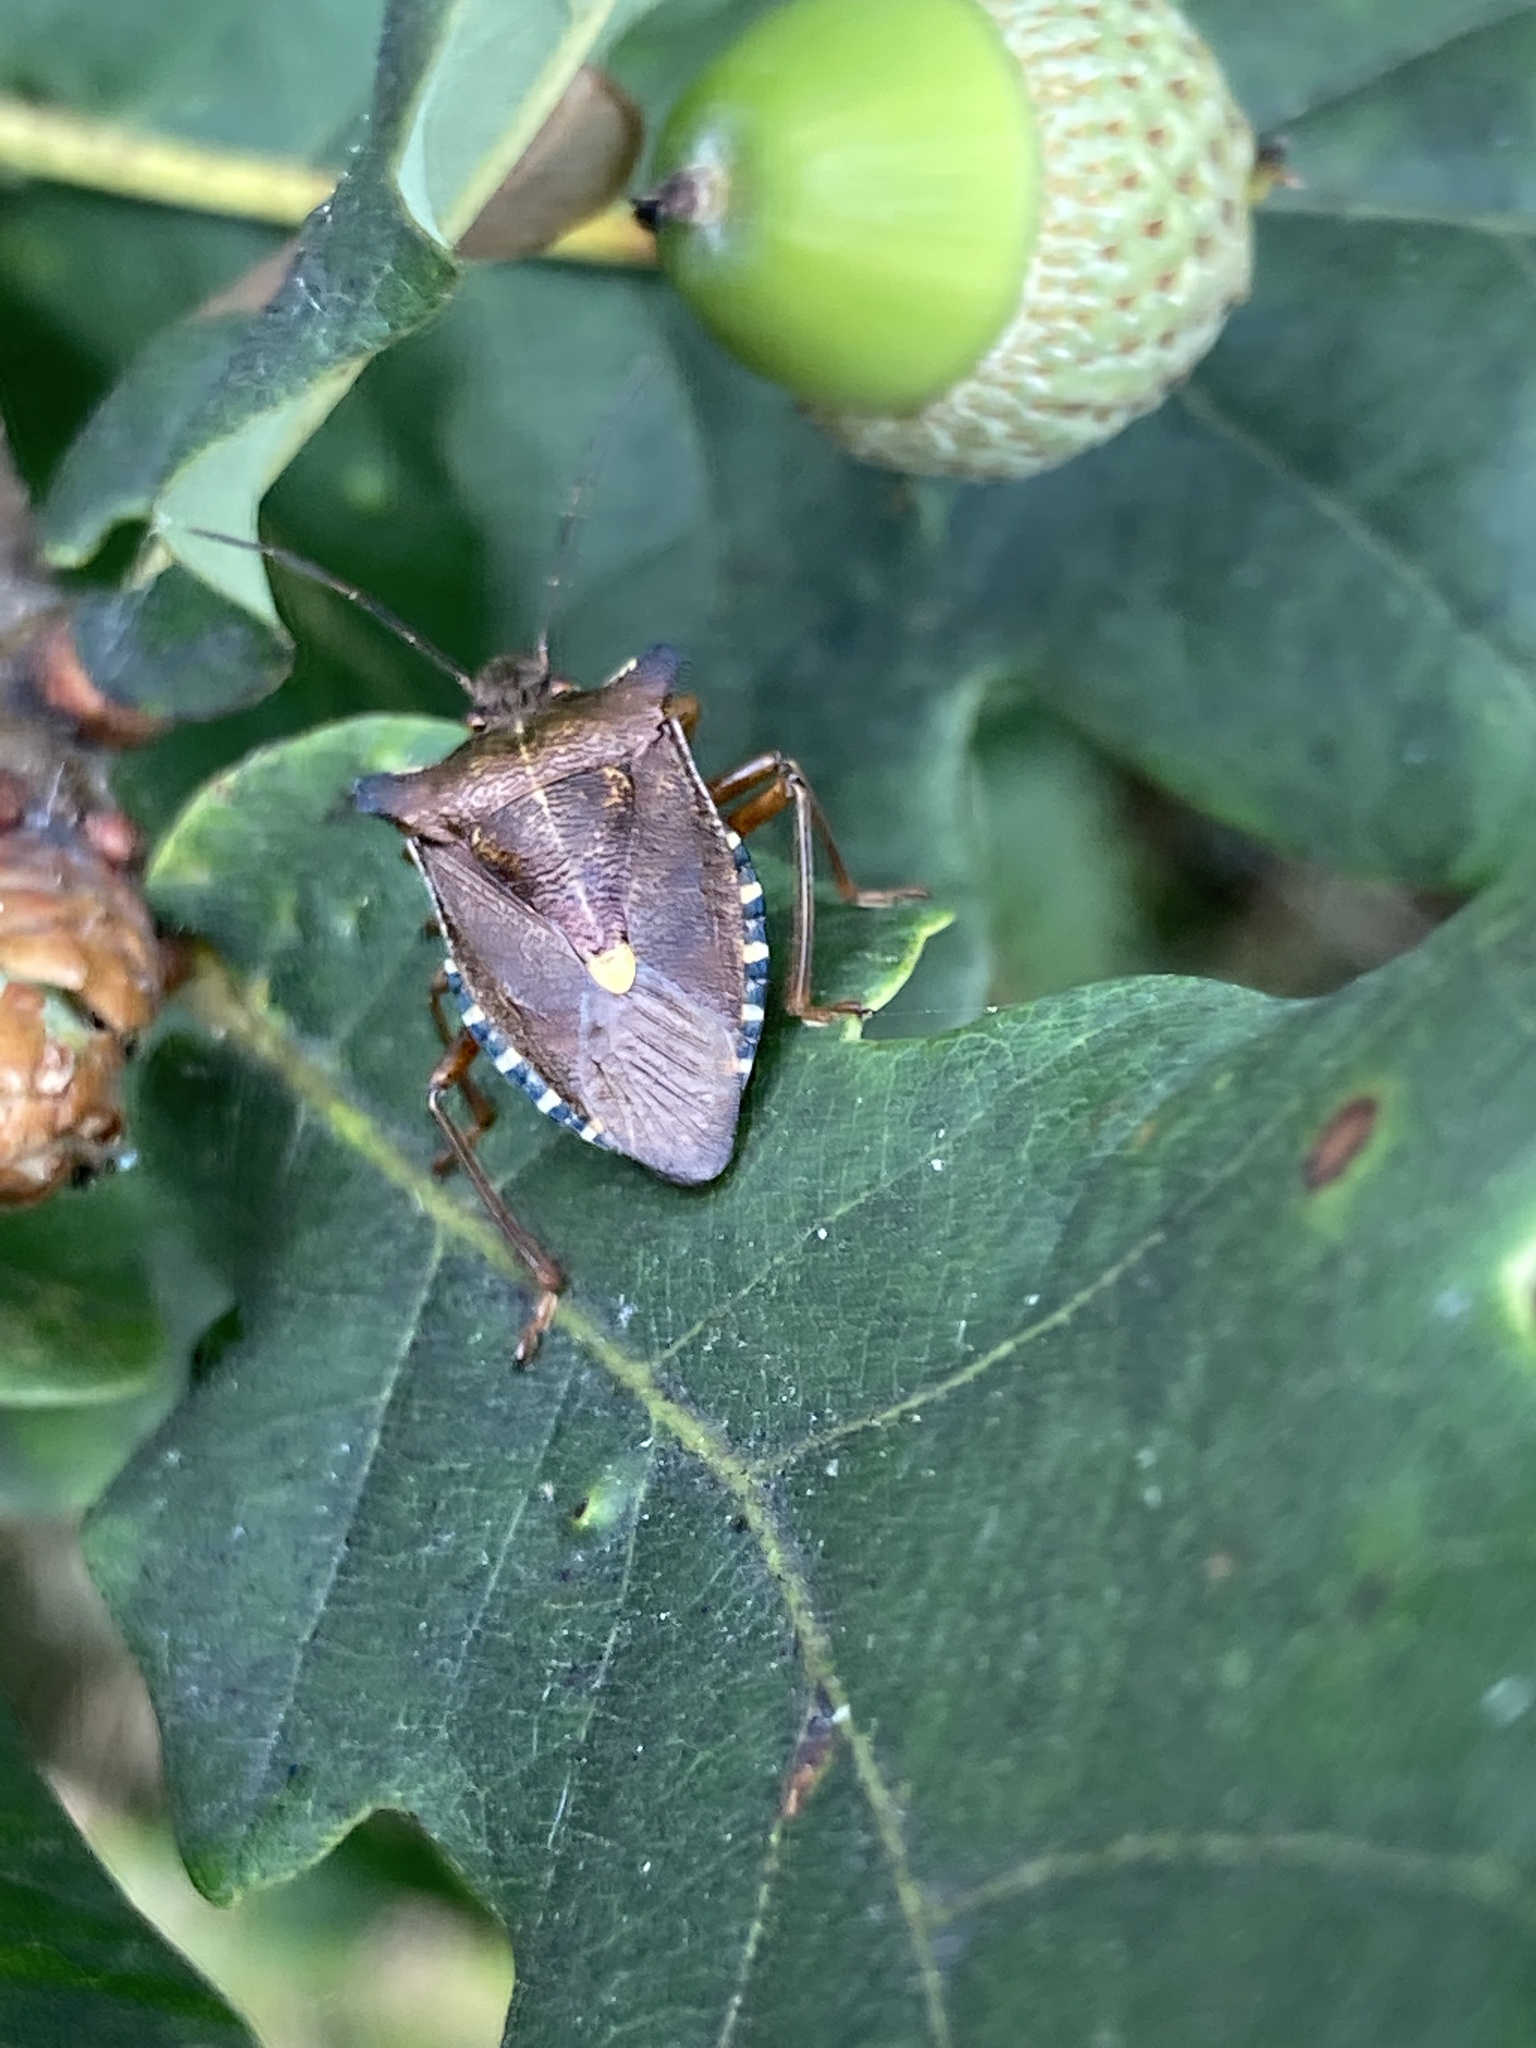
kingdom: Animalia
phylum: Arthropoda
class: Insecta
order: Hemiptera
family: Pentatomidae
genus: Pentatoma
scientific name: Pentatoma rufipes
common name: Forest bug
